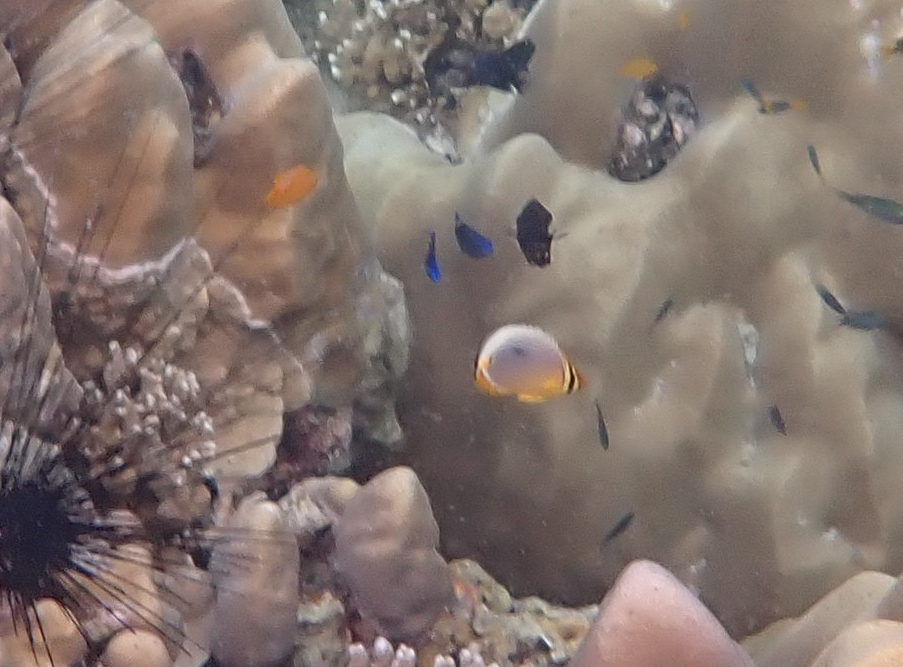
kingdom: Animalia
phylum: Chordata
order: Perciformes
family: Chaetodontidae
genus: Chaetodon
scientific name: Chaetodon trifasciatus
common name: Redfin butterflyfish
